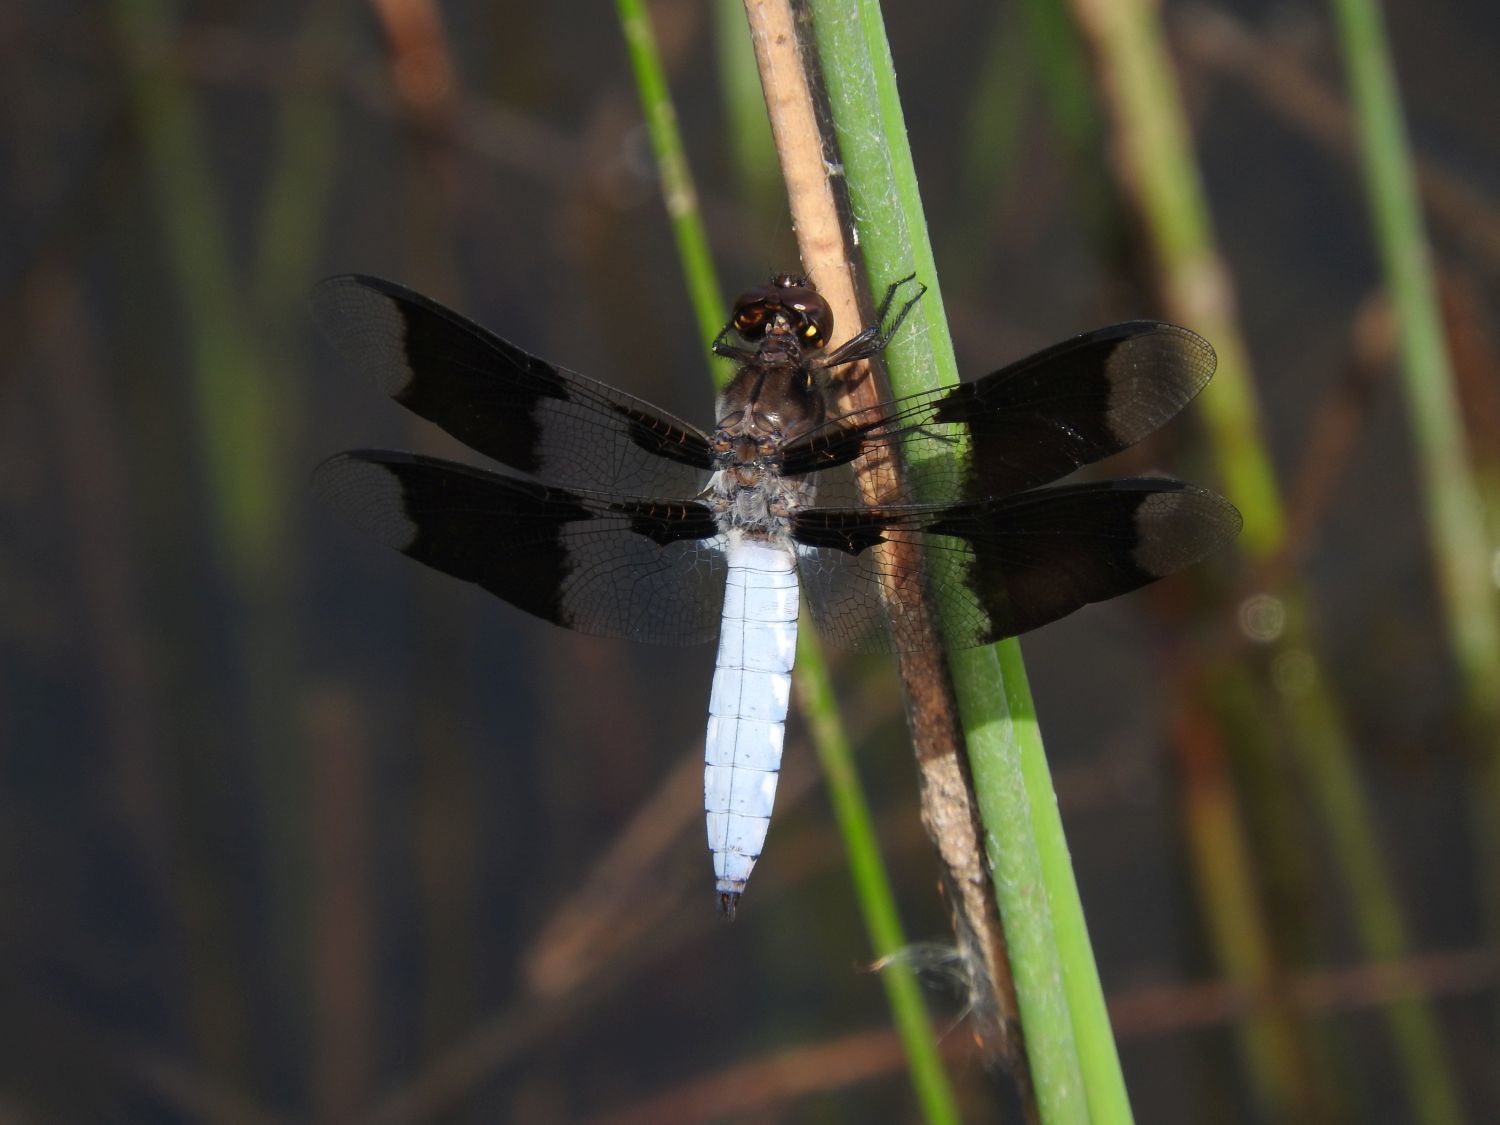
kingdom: Animalia
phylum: Arthropoda
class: Insecta
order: Odonata
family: Libellulidae
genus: Plathemis
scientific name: Plathemis lydia
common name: Common whitetail
